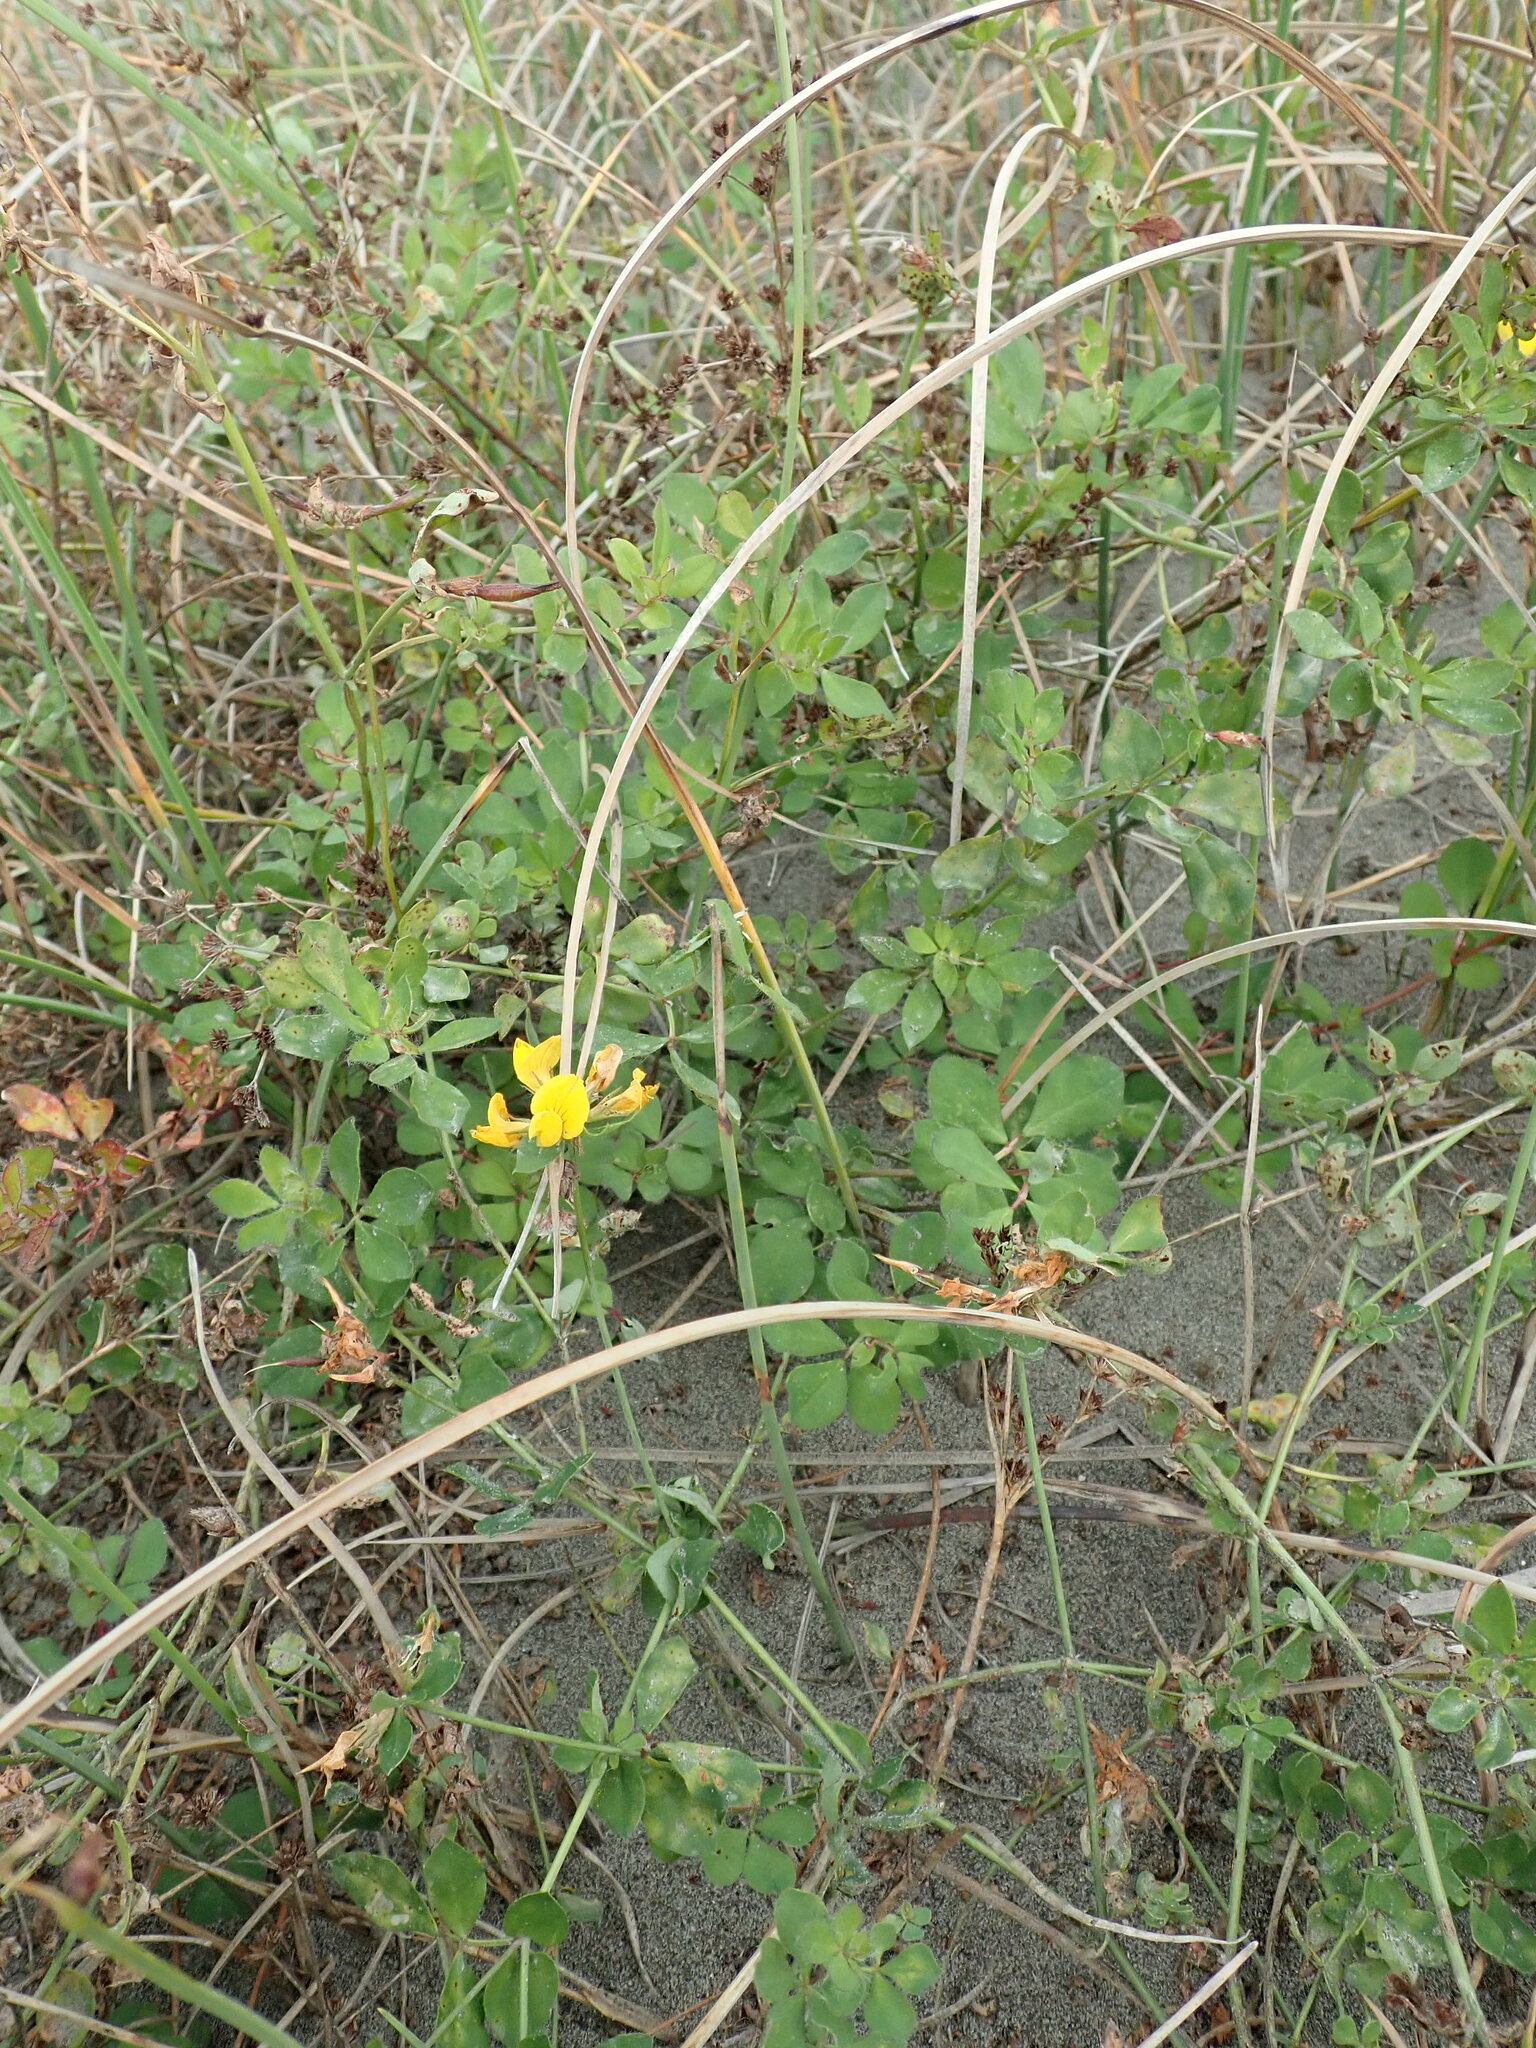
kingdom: Plantae
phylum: Tracheophyta
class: Magnoliopsida
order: Fabales
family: Fabaceae
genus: Lotus
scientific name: Lotus pedunculatus
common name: Greater birdsfoot-trefoil
